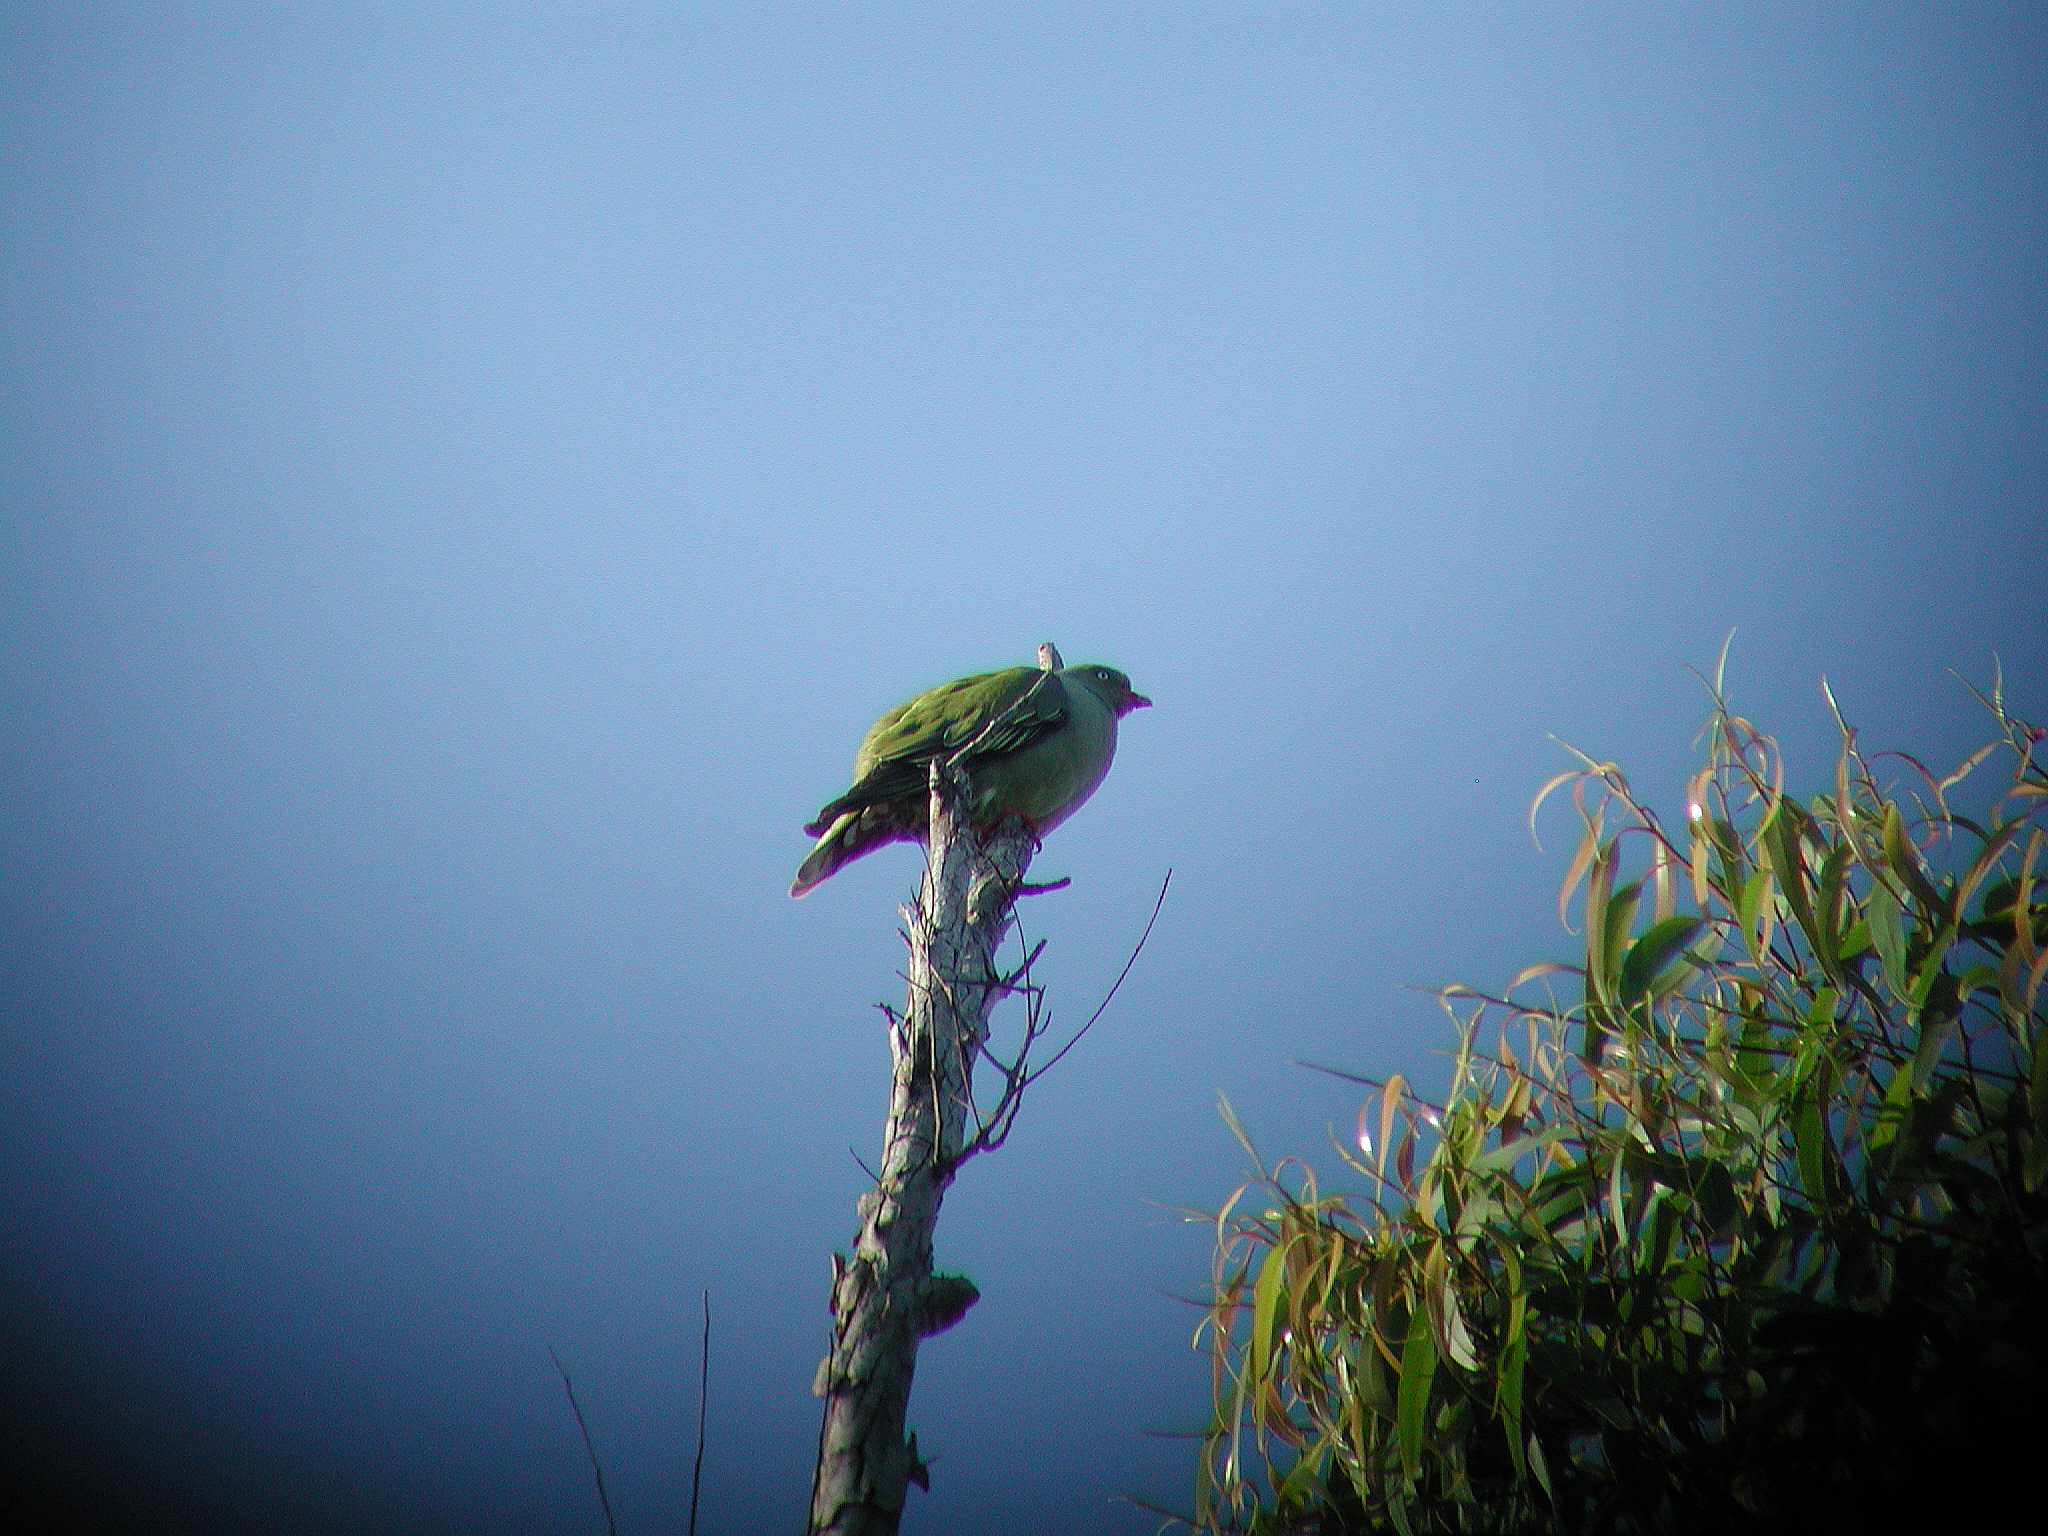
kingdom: Animalia
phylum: Chordata
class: Aves
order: Columbiformes
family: Columbidae
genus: Treron
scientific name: Treron calvus
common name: African green pigeon
